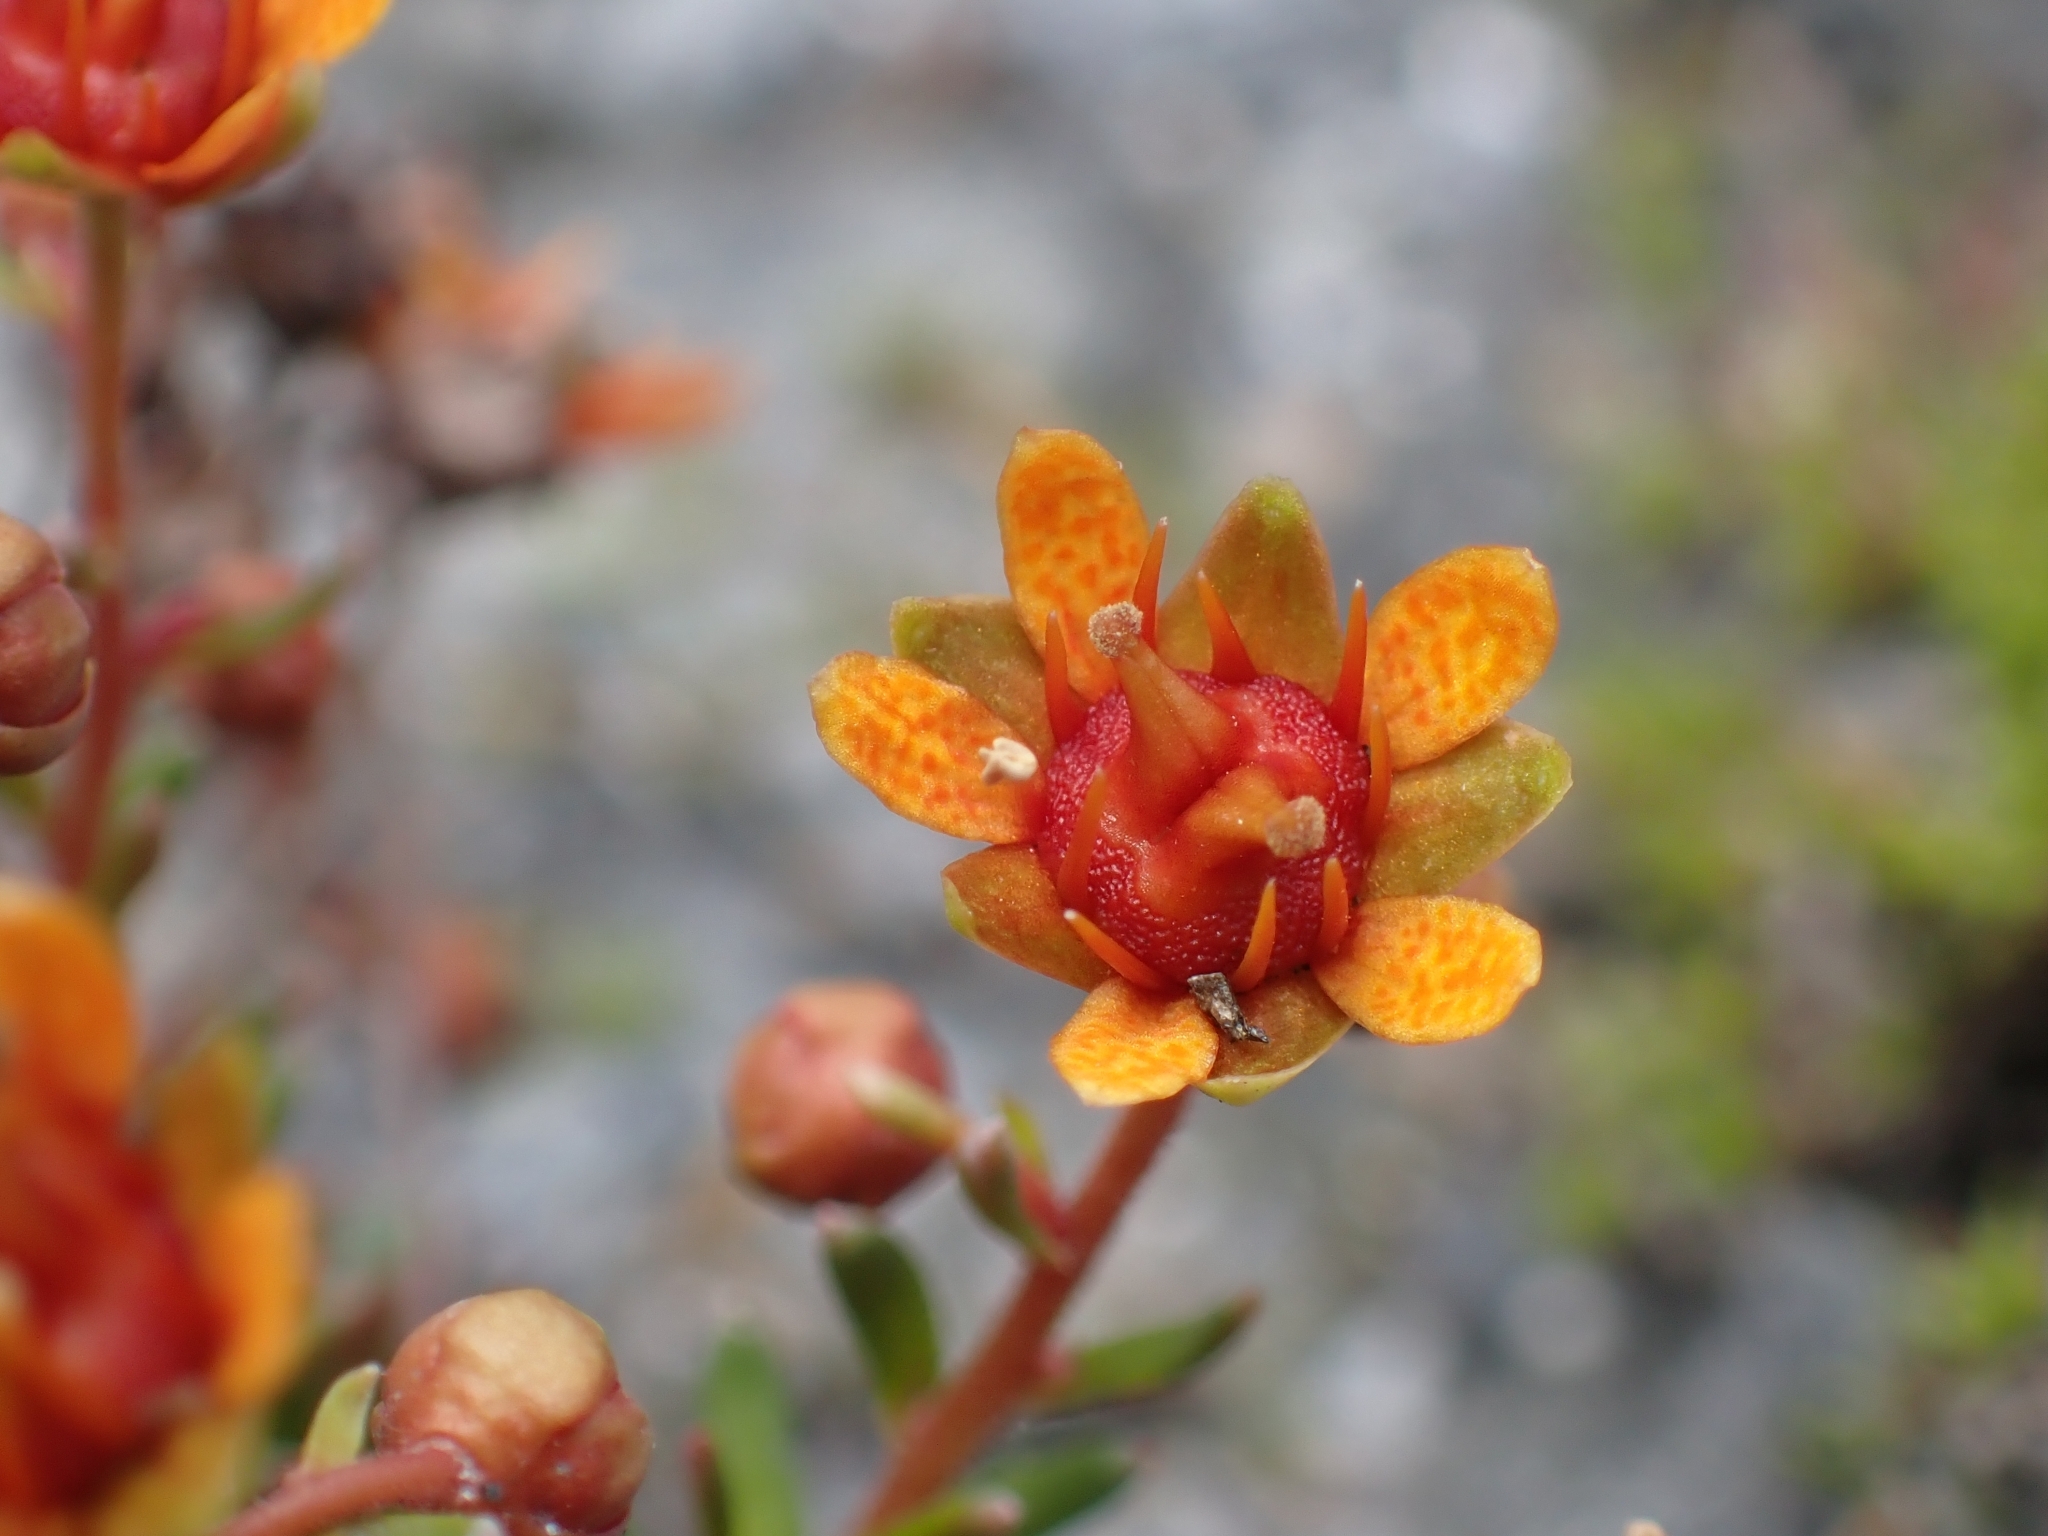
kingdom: Plantae
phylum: Tracheophyta
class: Magnoliopsida
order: Saxifragales
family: Saxifragaceae
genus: Saxifraga
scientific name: Saxifraga aizoides
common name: Yellow mountain saxifrage
